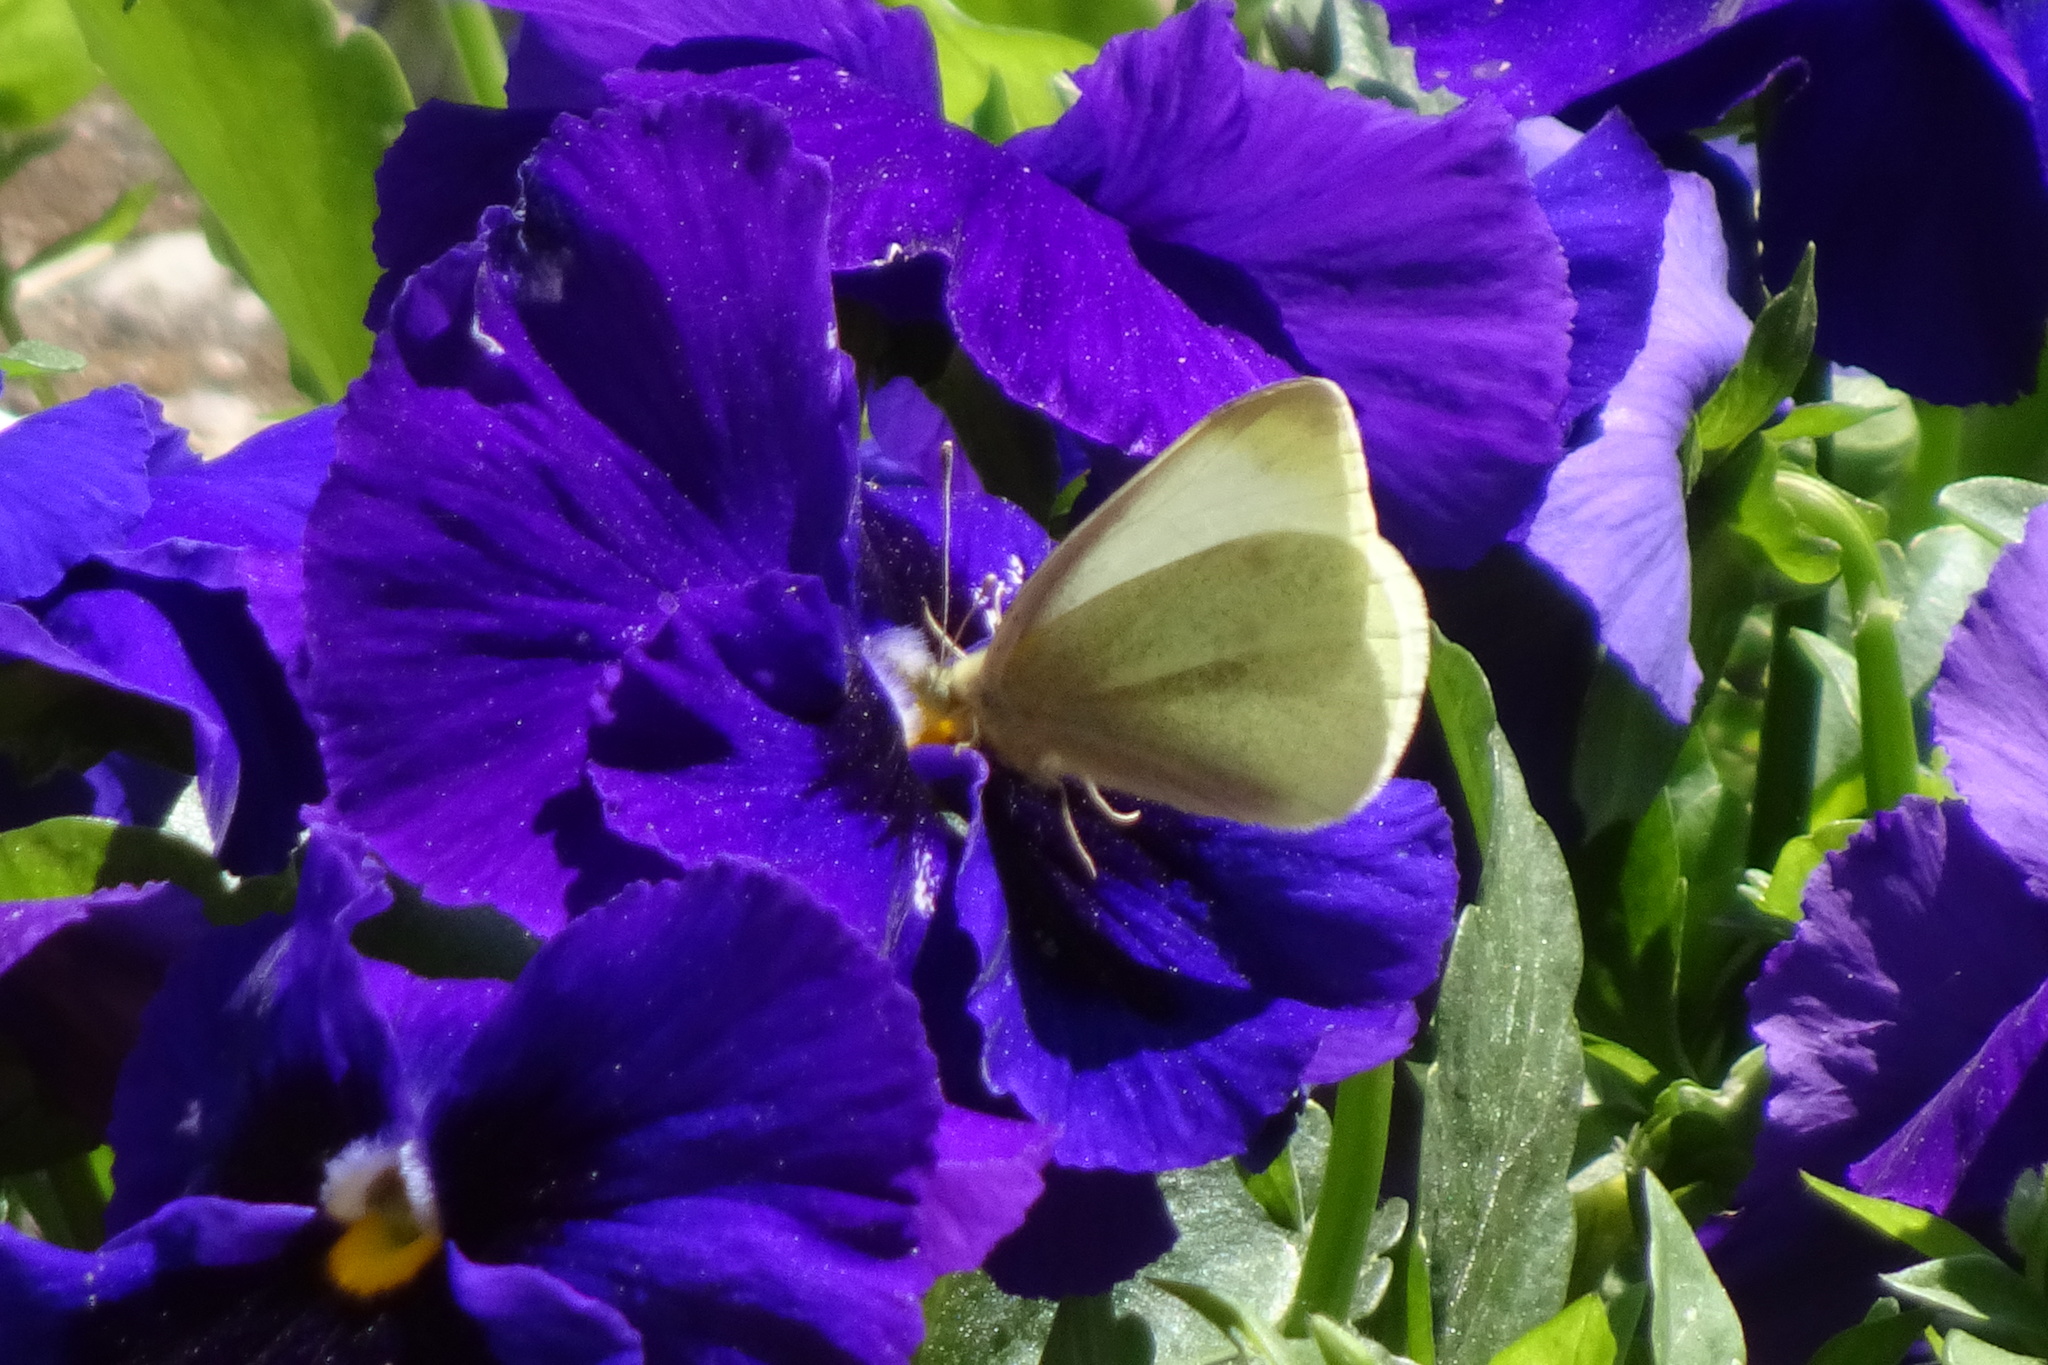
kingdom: Animalia
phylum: Arthropoda
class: Insecta
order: Lepidoptera
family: Pieridae
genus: Pieris
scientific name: Pieris rapae
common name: Small white
